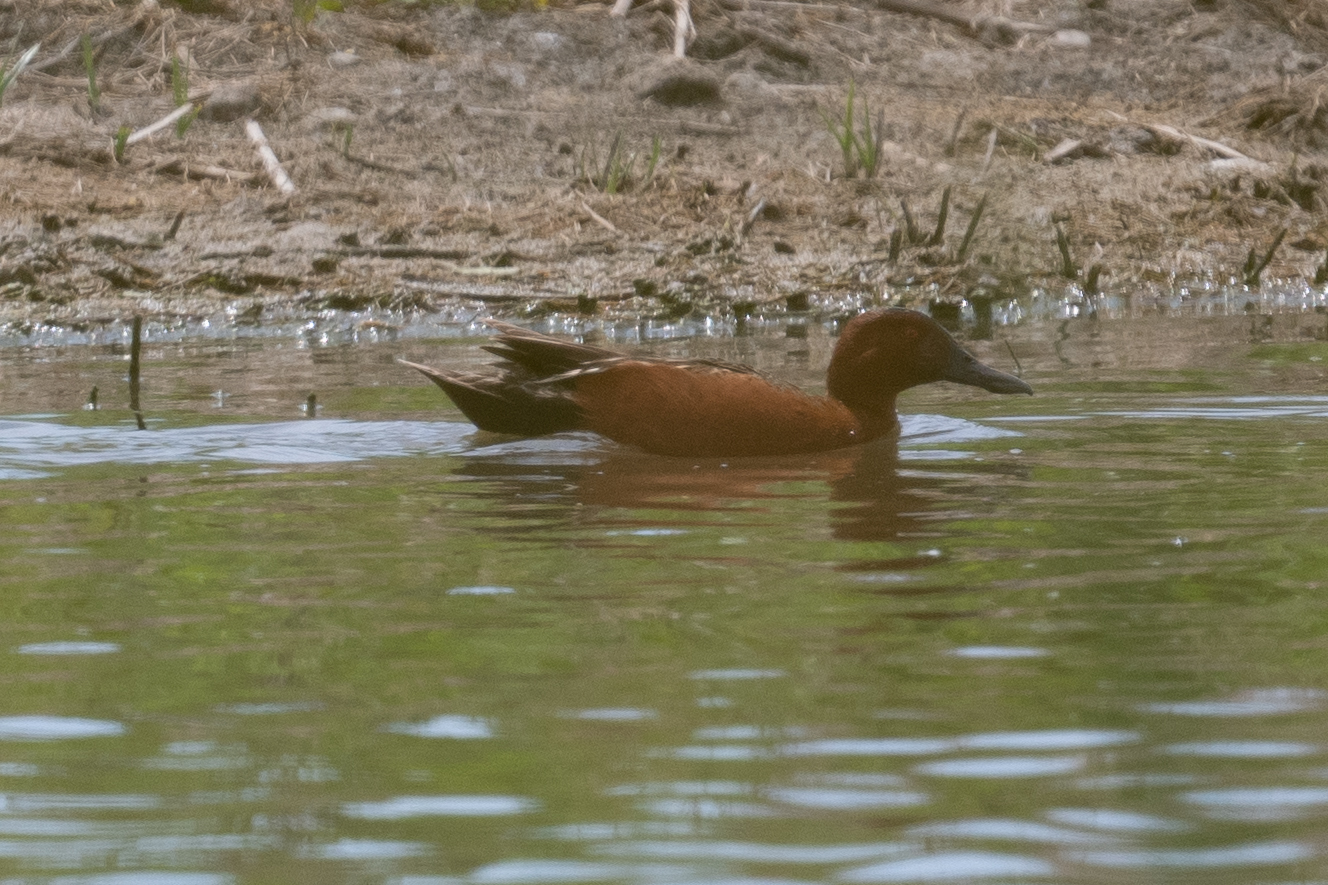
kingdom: Animalia
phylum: Chordata
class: Aves
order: Anseriformes
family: Anatidae
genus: Spatula
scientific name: Spatula cyanoptera
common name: Cinnamon teal
